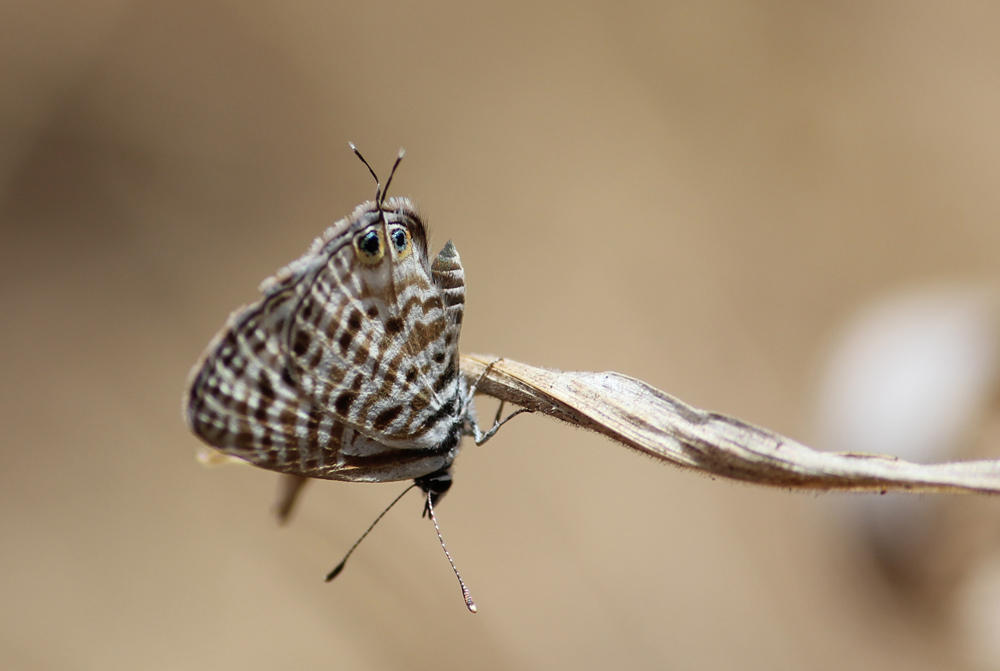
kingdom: Animalia
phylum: Arthropoda
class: Insecta
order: Lepidoptera
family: Lycaenidae
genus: Leptotes
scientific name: Leptotes
